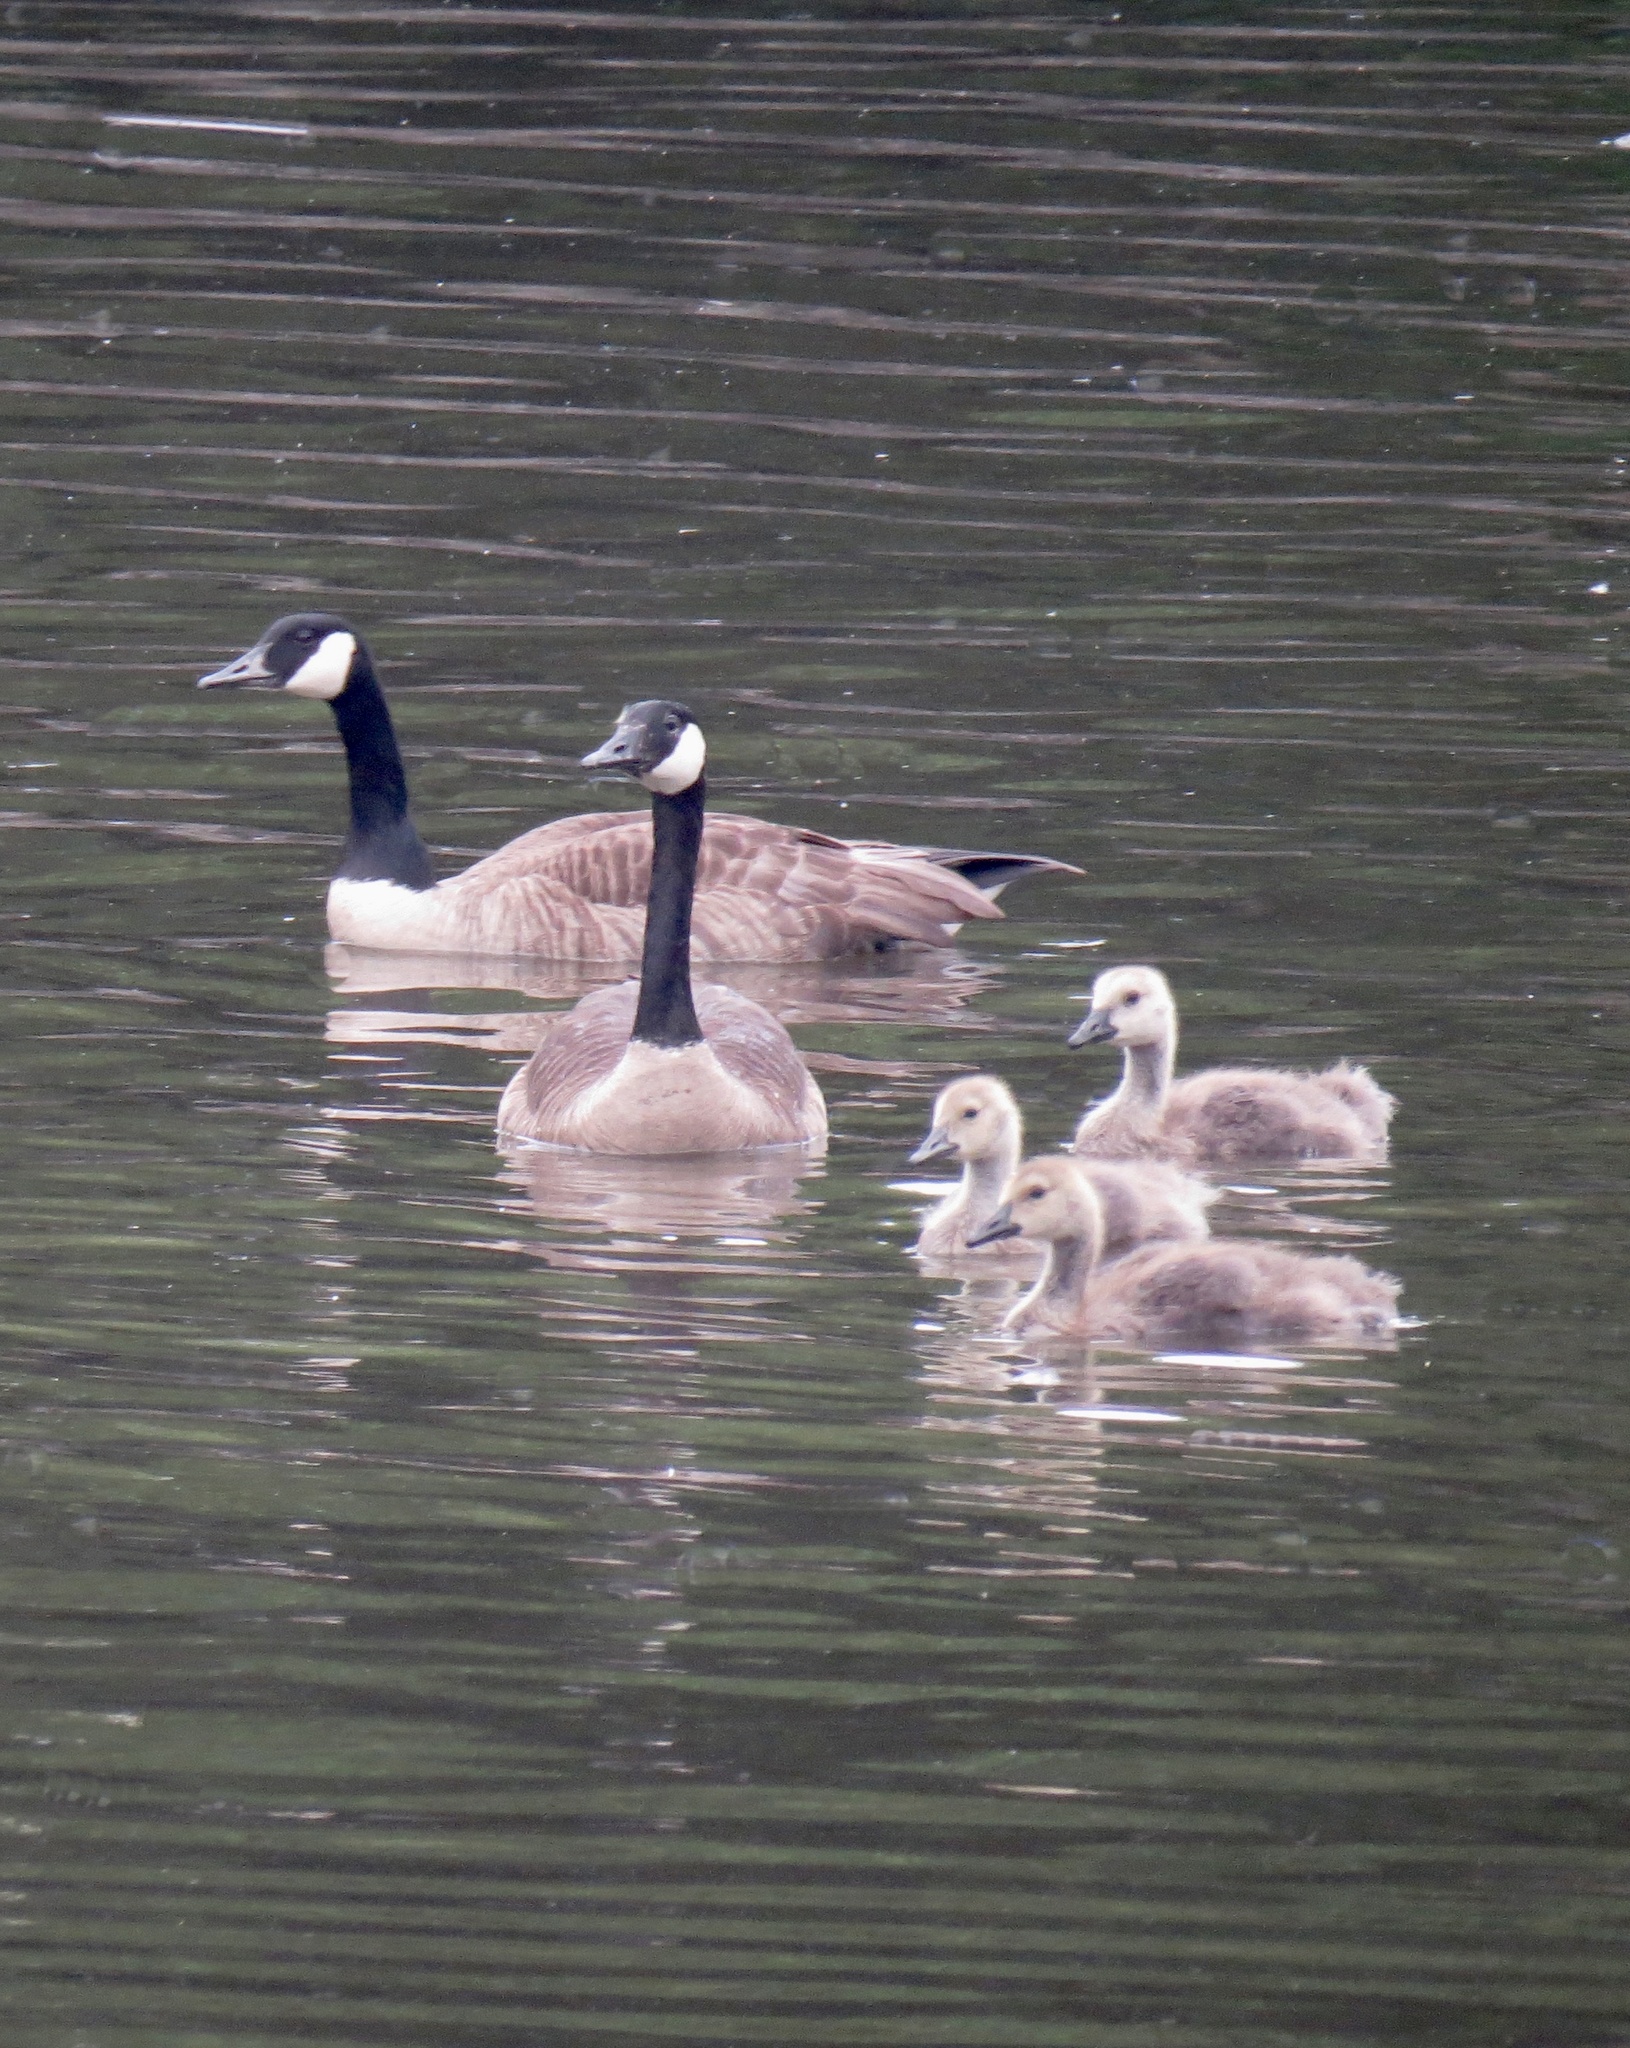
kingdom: Animalia
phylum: Chordata
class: Aves
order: Anseriformes
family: Anatidae
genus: Branta
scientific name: Branta canadensis
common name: Canada goose
